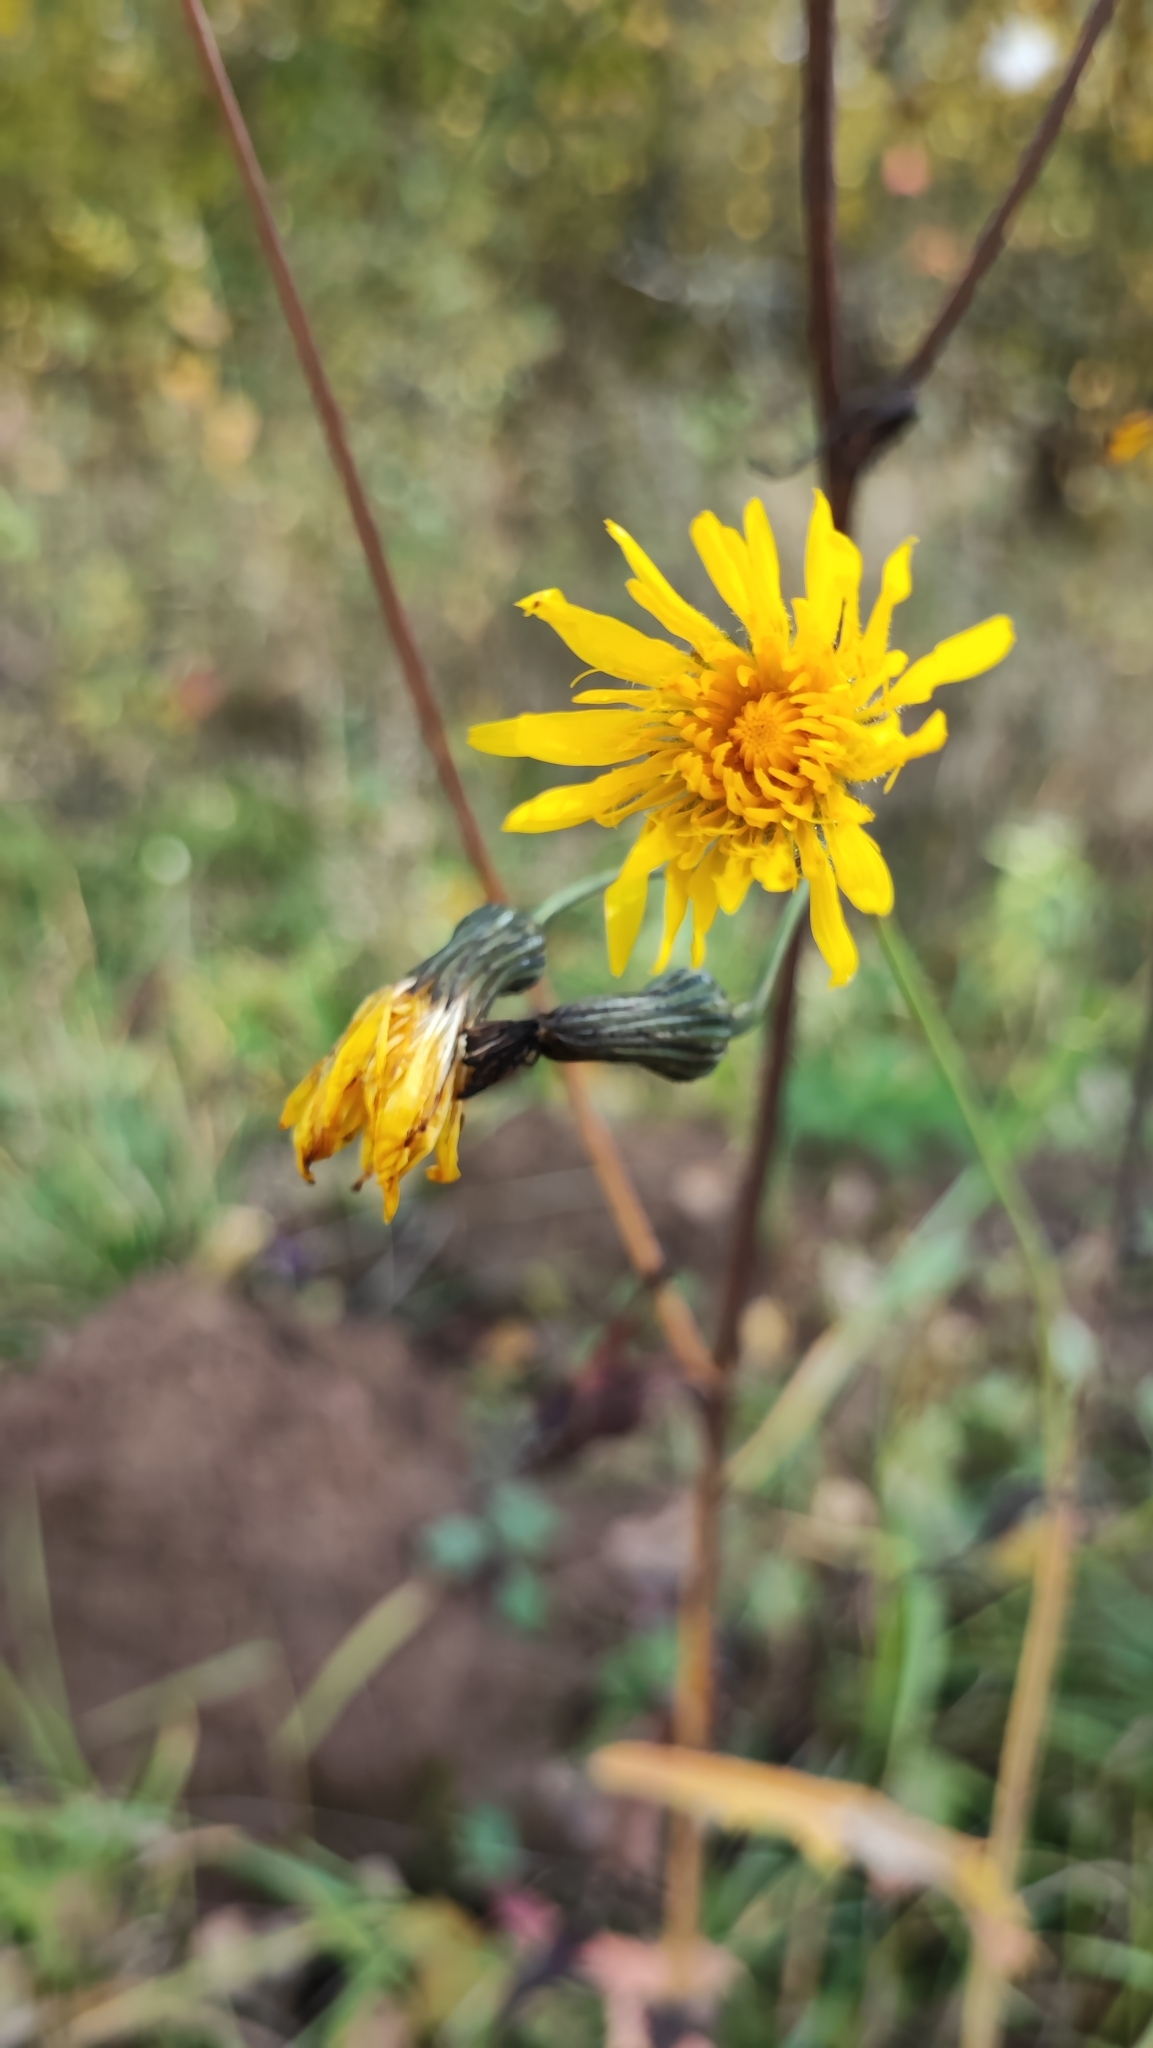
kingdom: Plantae
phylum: Tracheophyta
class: Magnoliopsida
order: Asterales
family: Asteraceae
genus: Sonchus
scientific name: Sonchus arvensis
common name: Perennial sow-thistle
